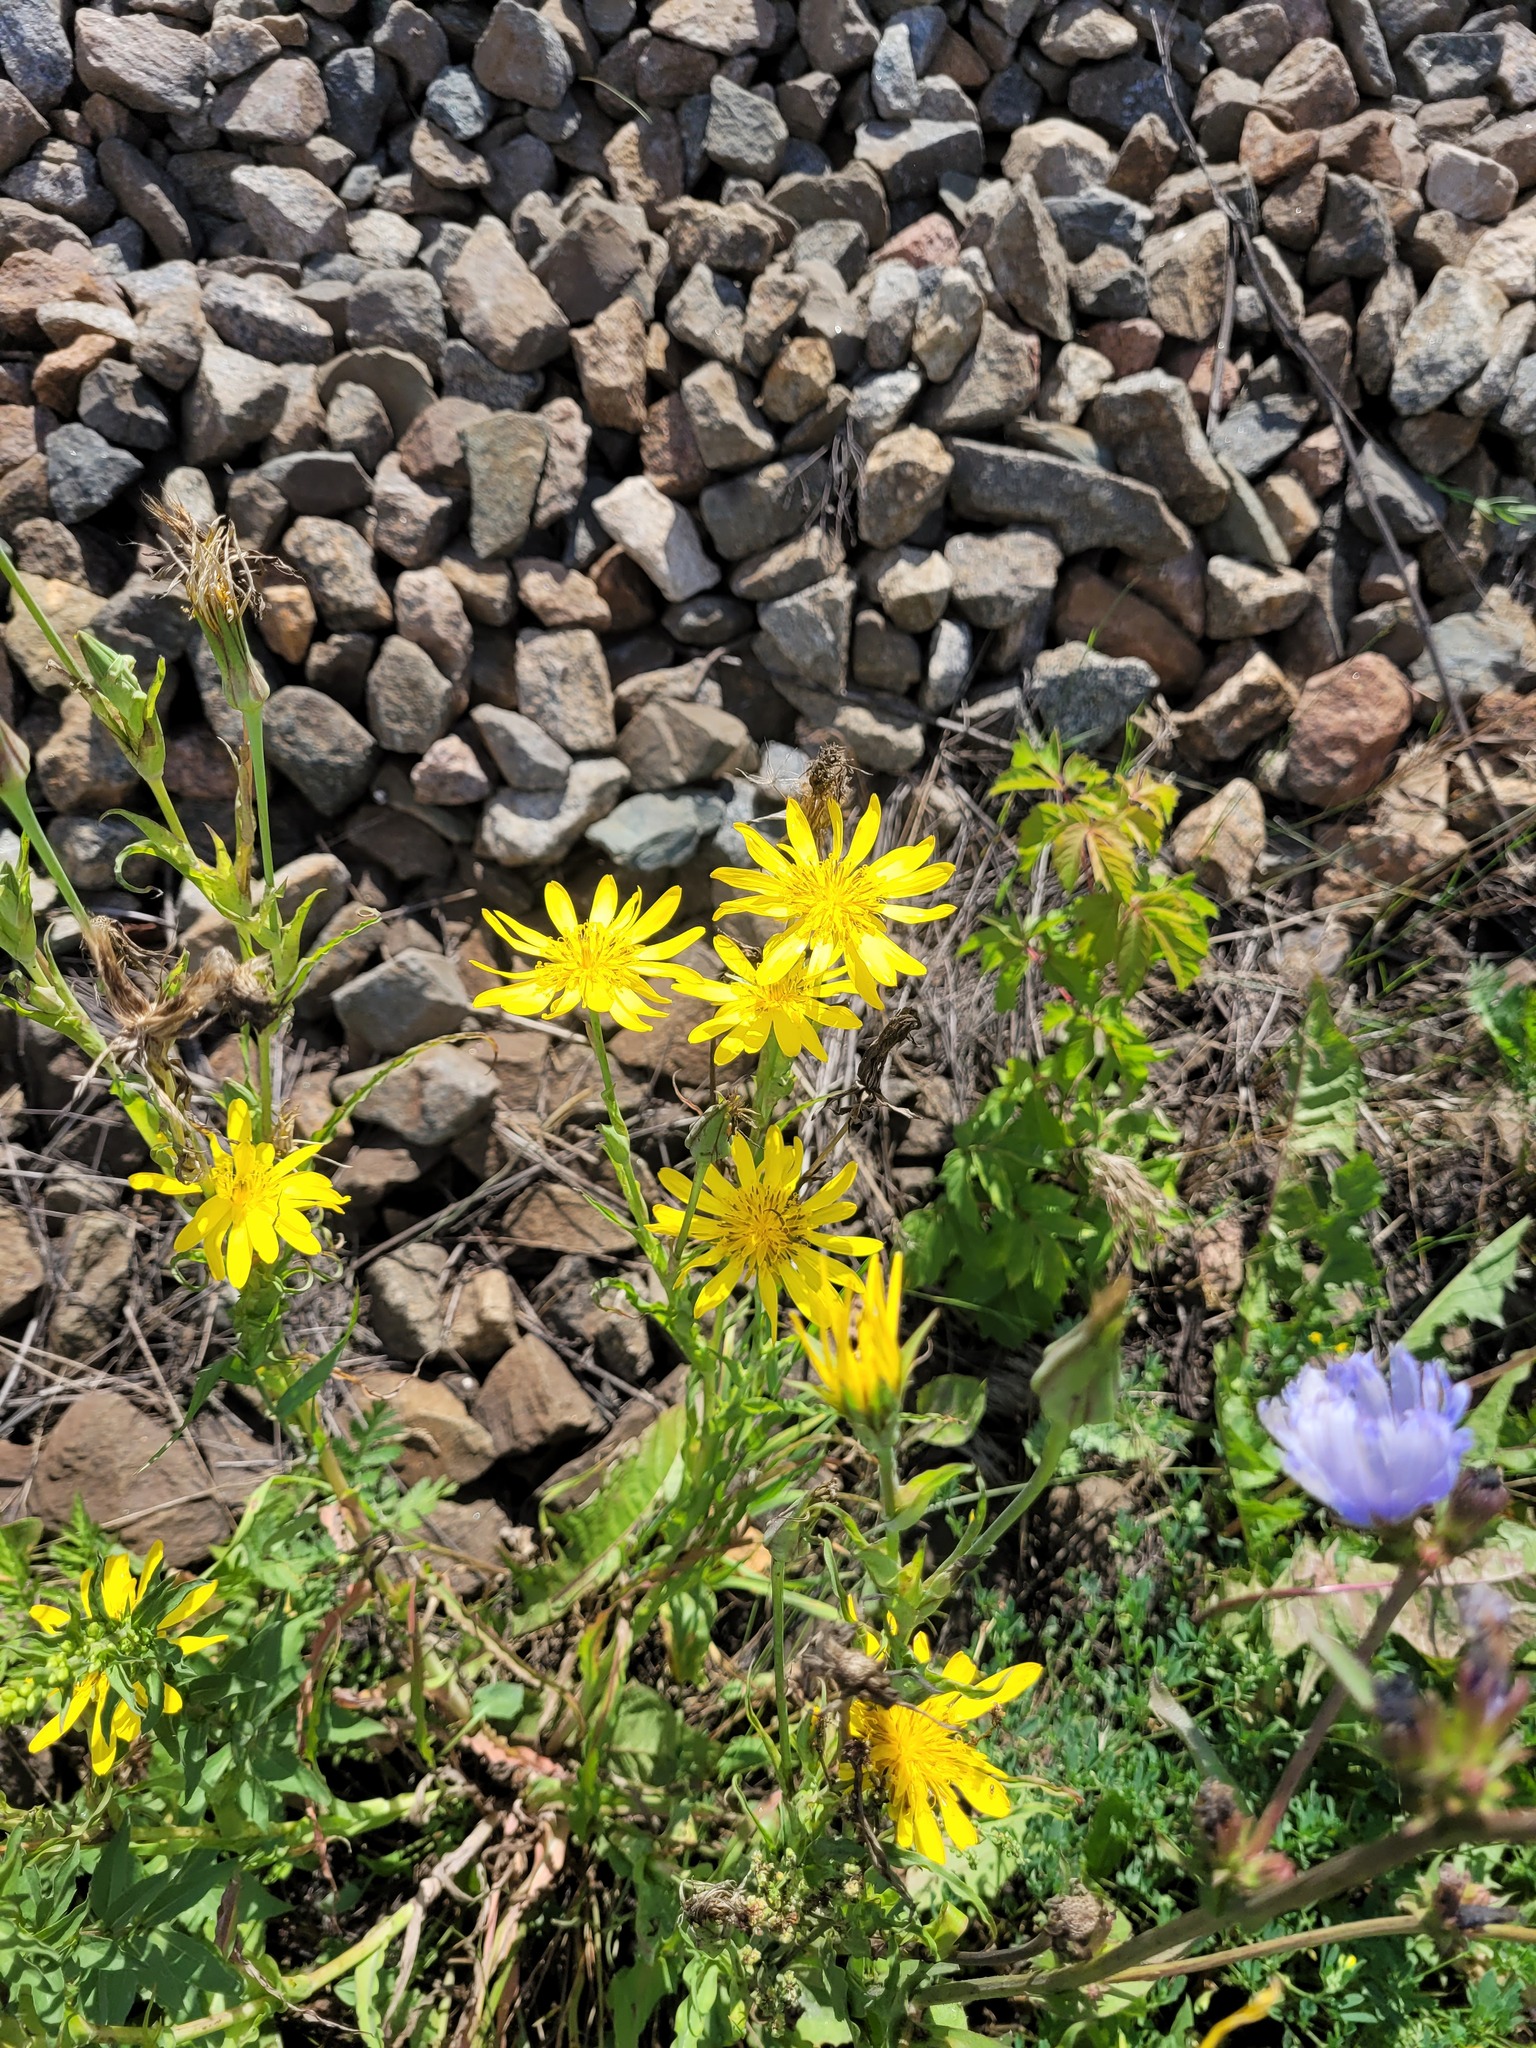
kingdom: Plantae
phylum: Tracheophyta
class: Magnoliopsida
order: Asterales
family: Asteraceae
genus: Tragopogon
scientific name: Tragopogon orientalis
